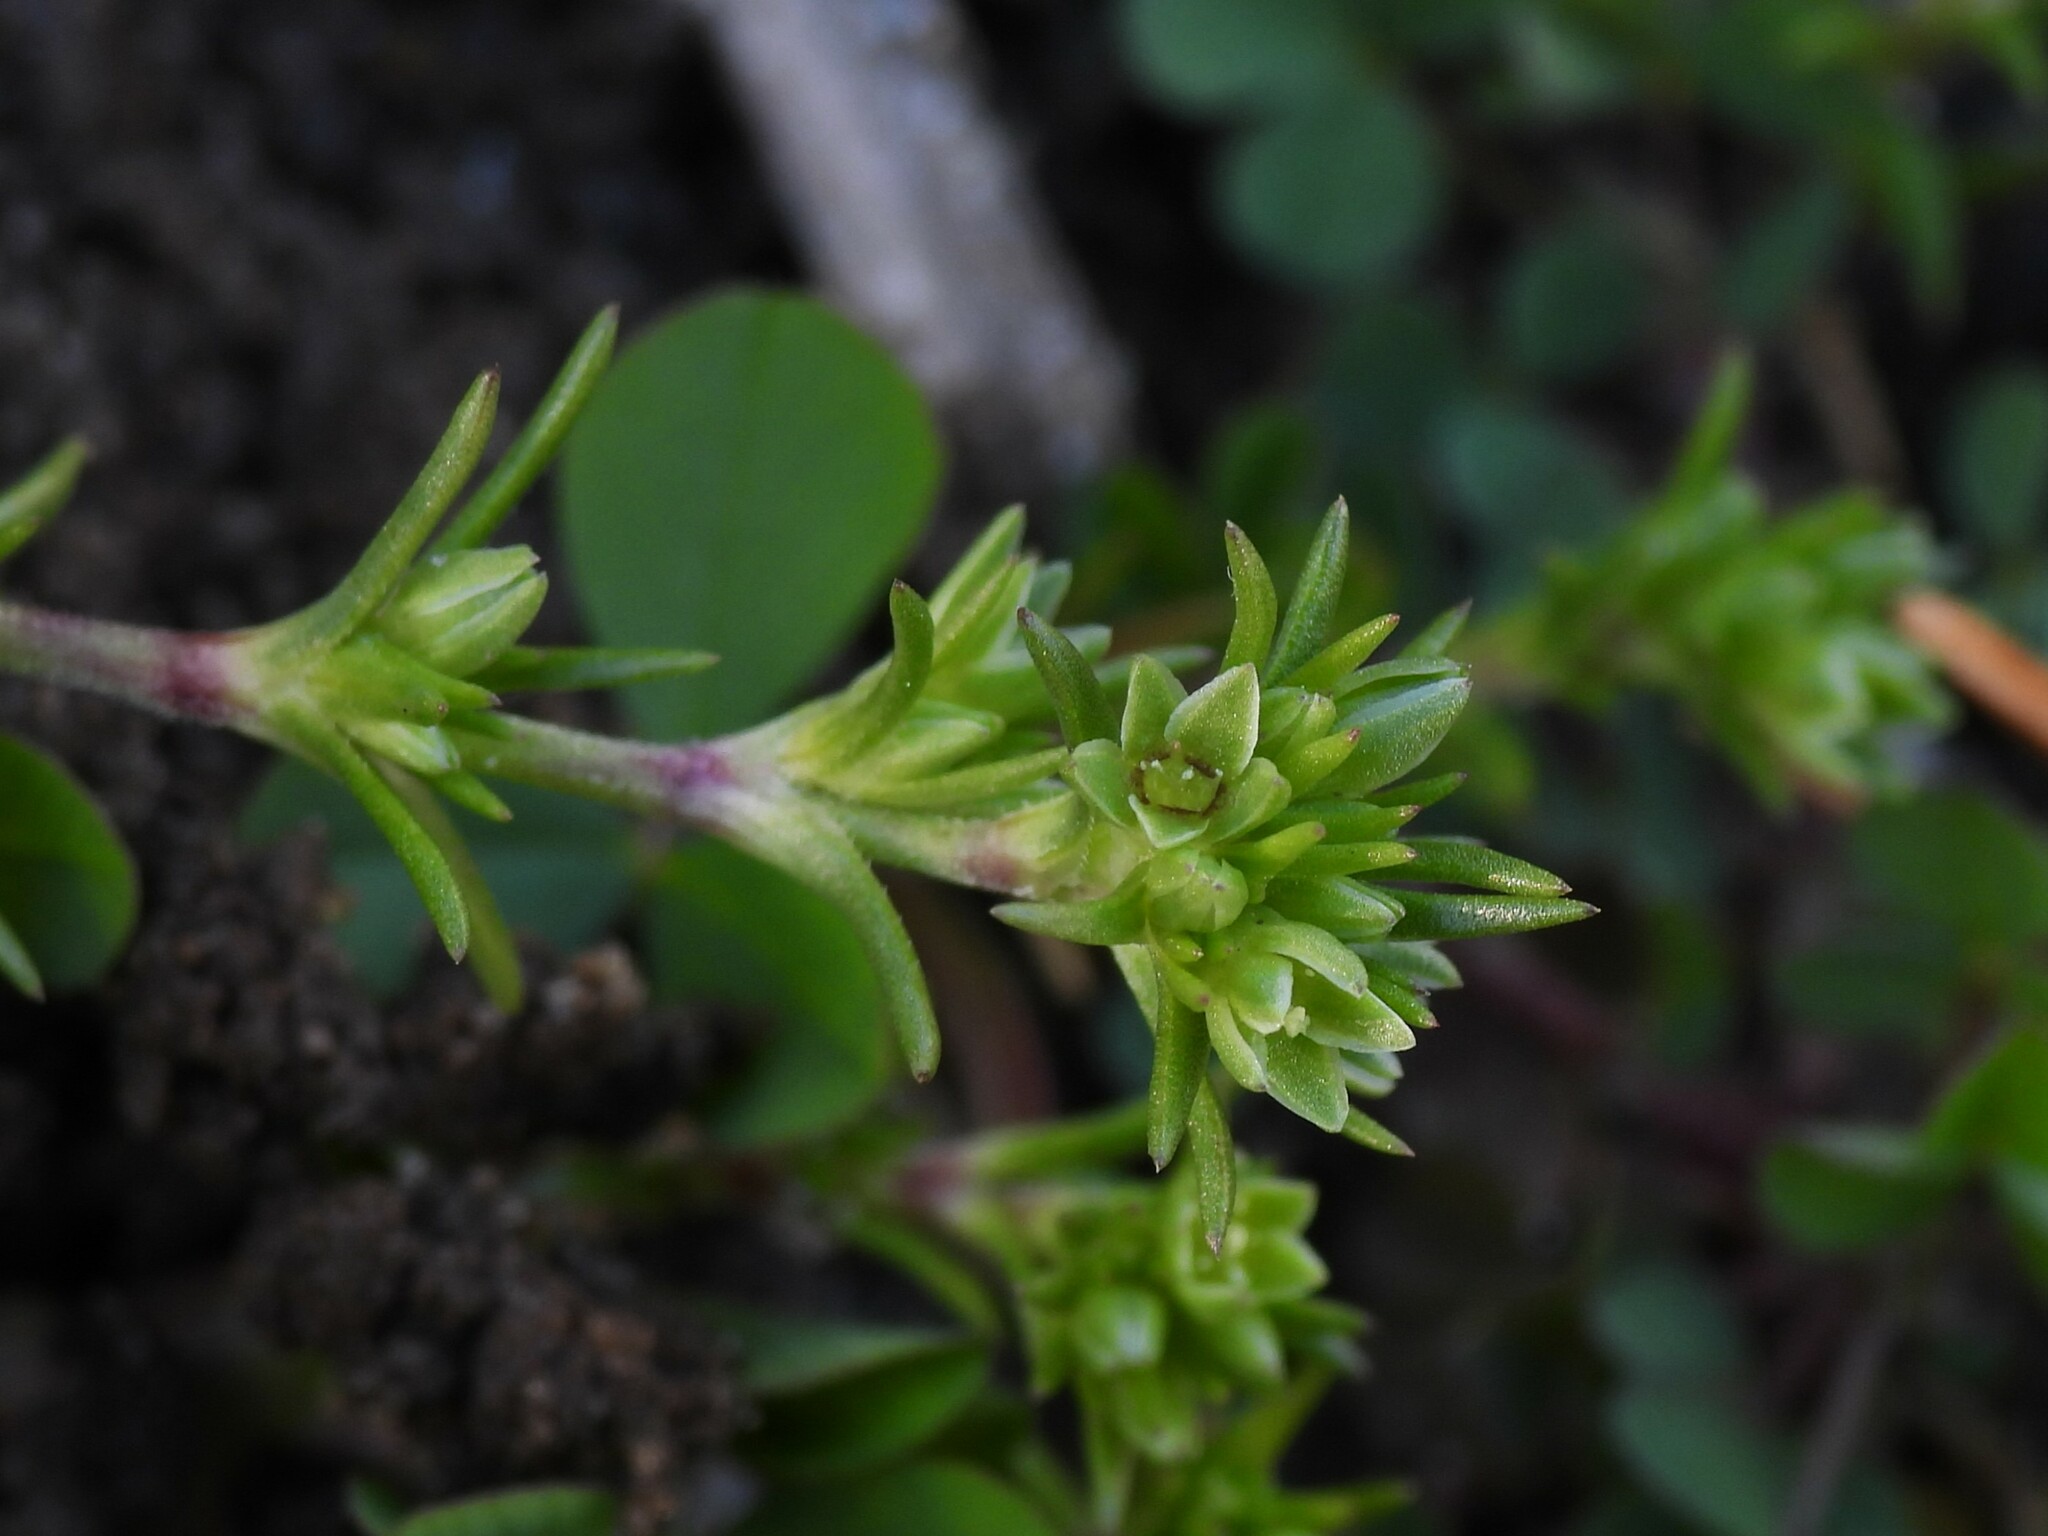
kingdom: Plantae
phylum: Tracheophyta
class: Magnoliopsida
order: Caryophyllales
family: Caryophyllaceae
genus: Scleranthus
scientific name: Scleranthus annuus
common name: Annual knawel
